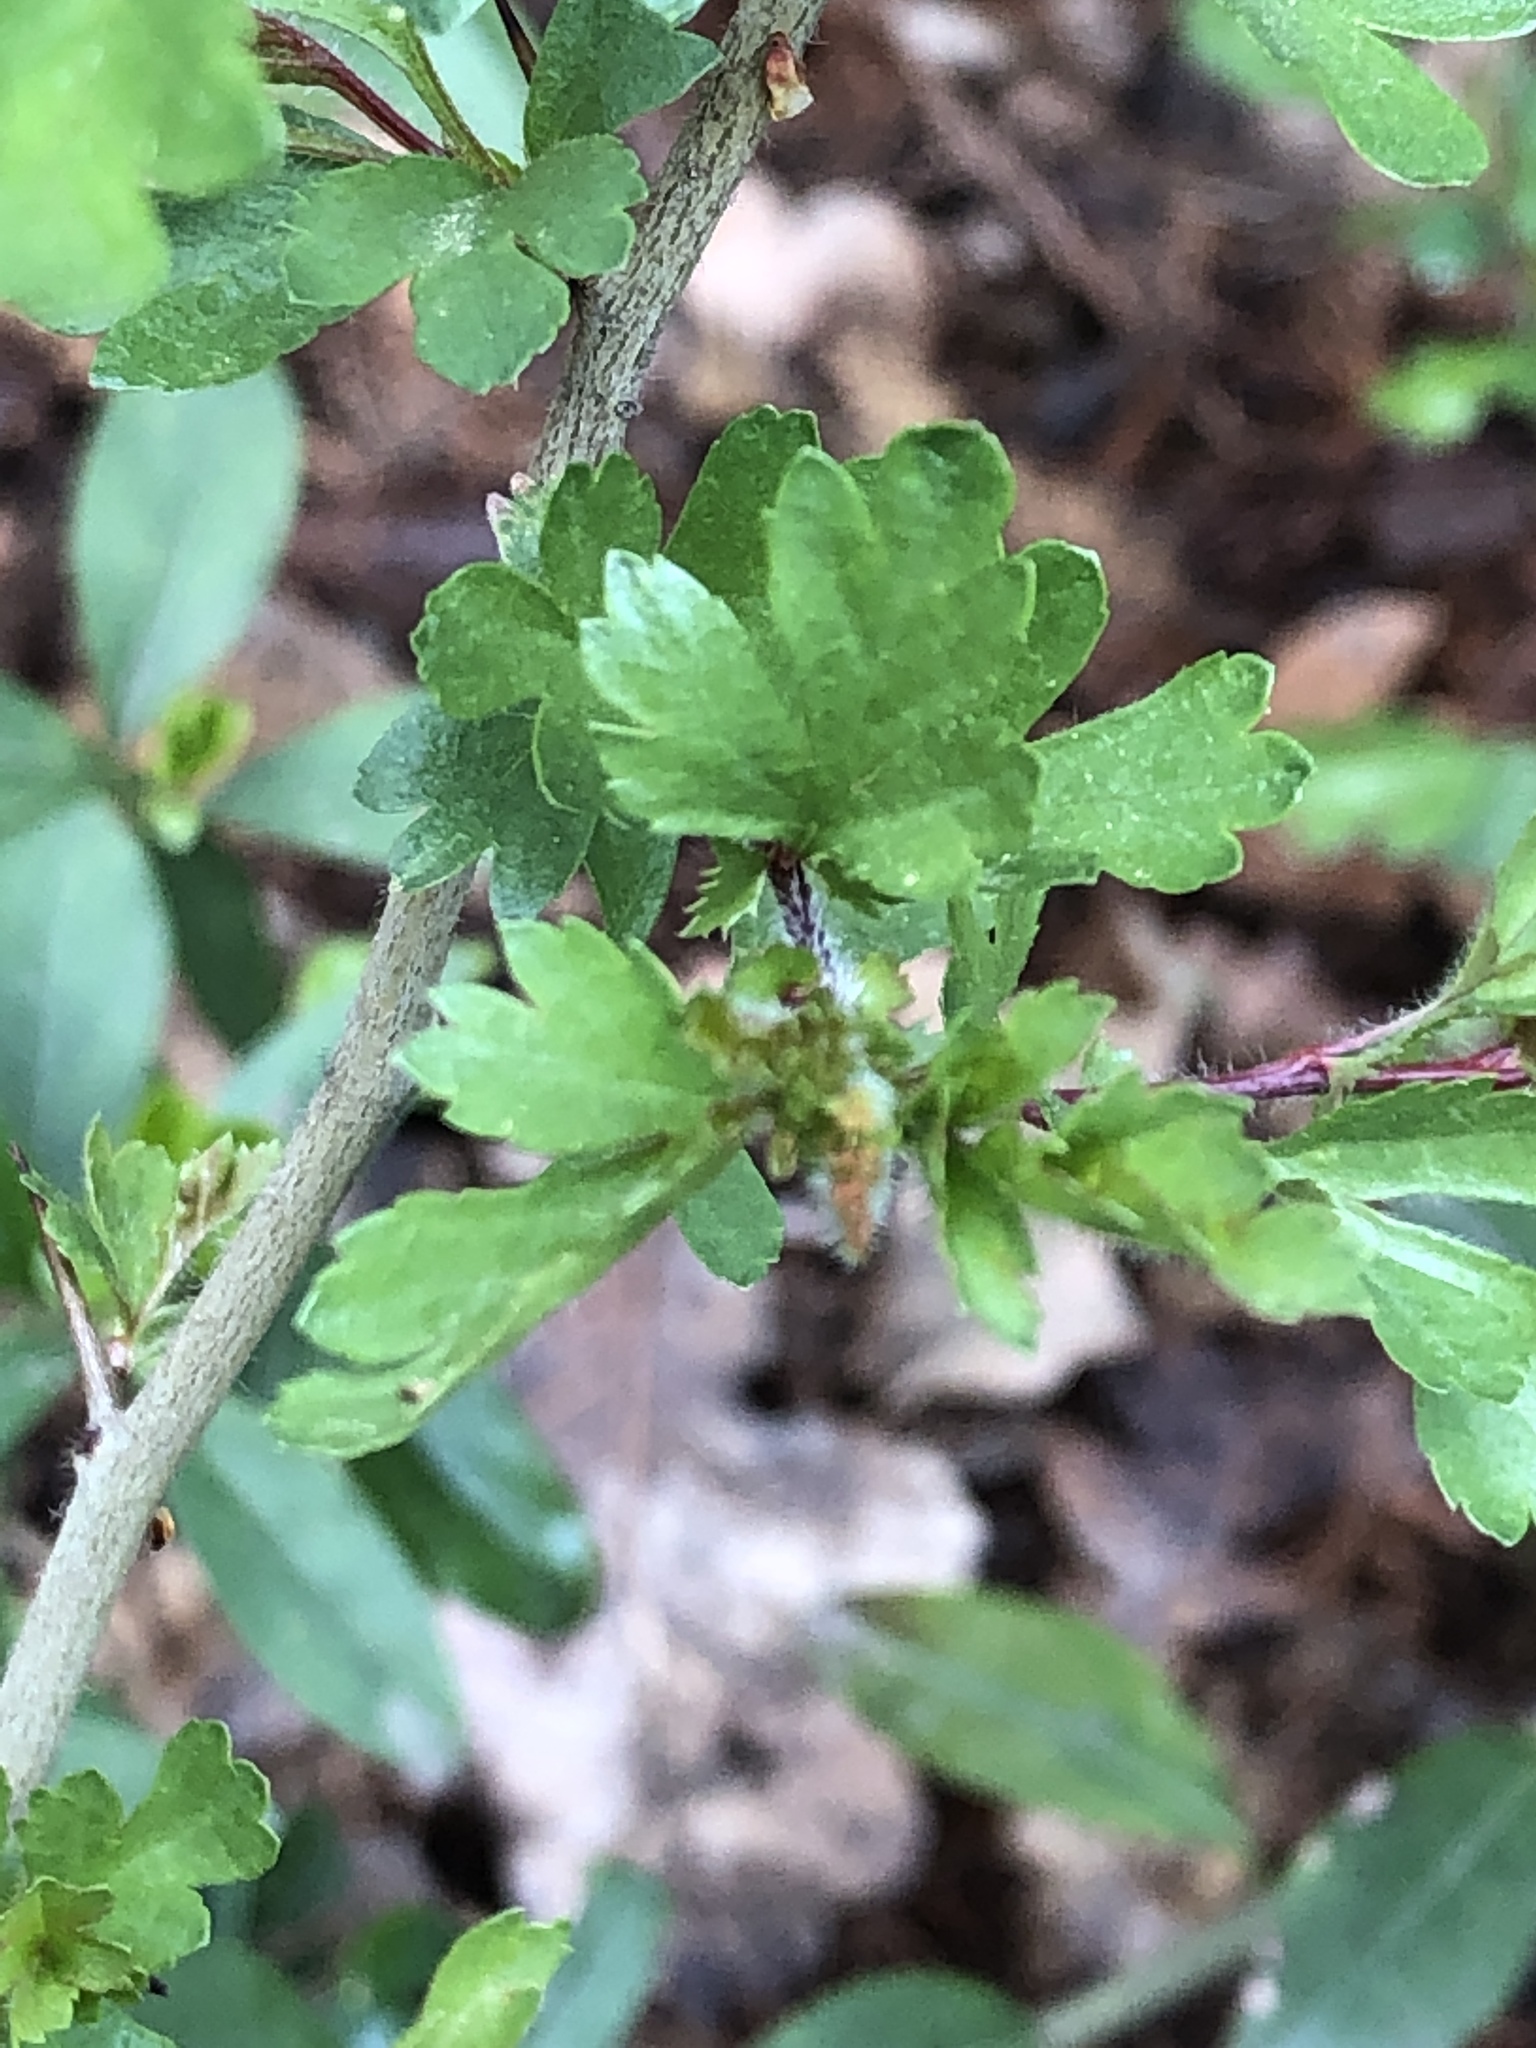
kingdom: Plantae
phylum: Tracheophyta
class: Magnoliopsida
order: Rosales
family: Rosaceae
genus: Crataegus
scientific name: Crataegus monogyna
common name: Hawthorn
